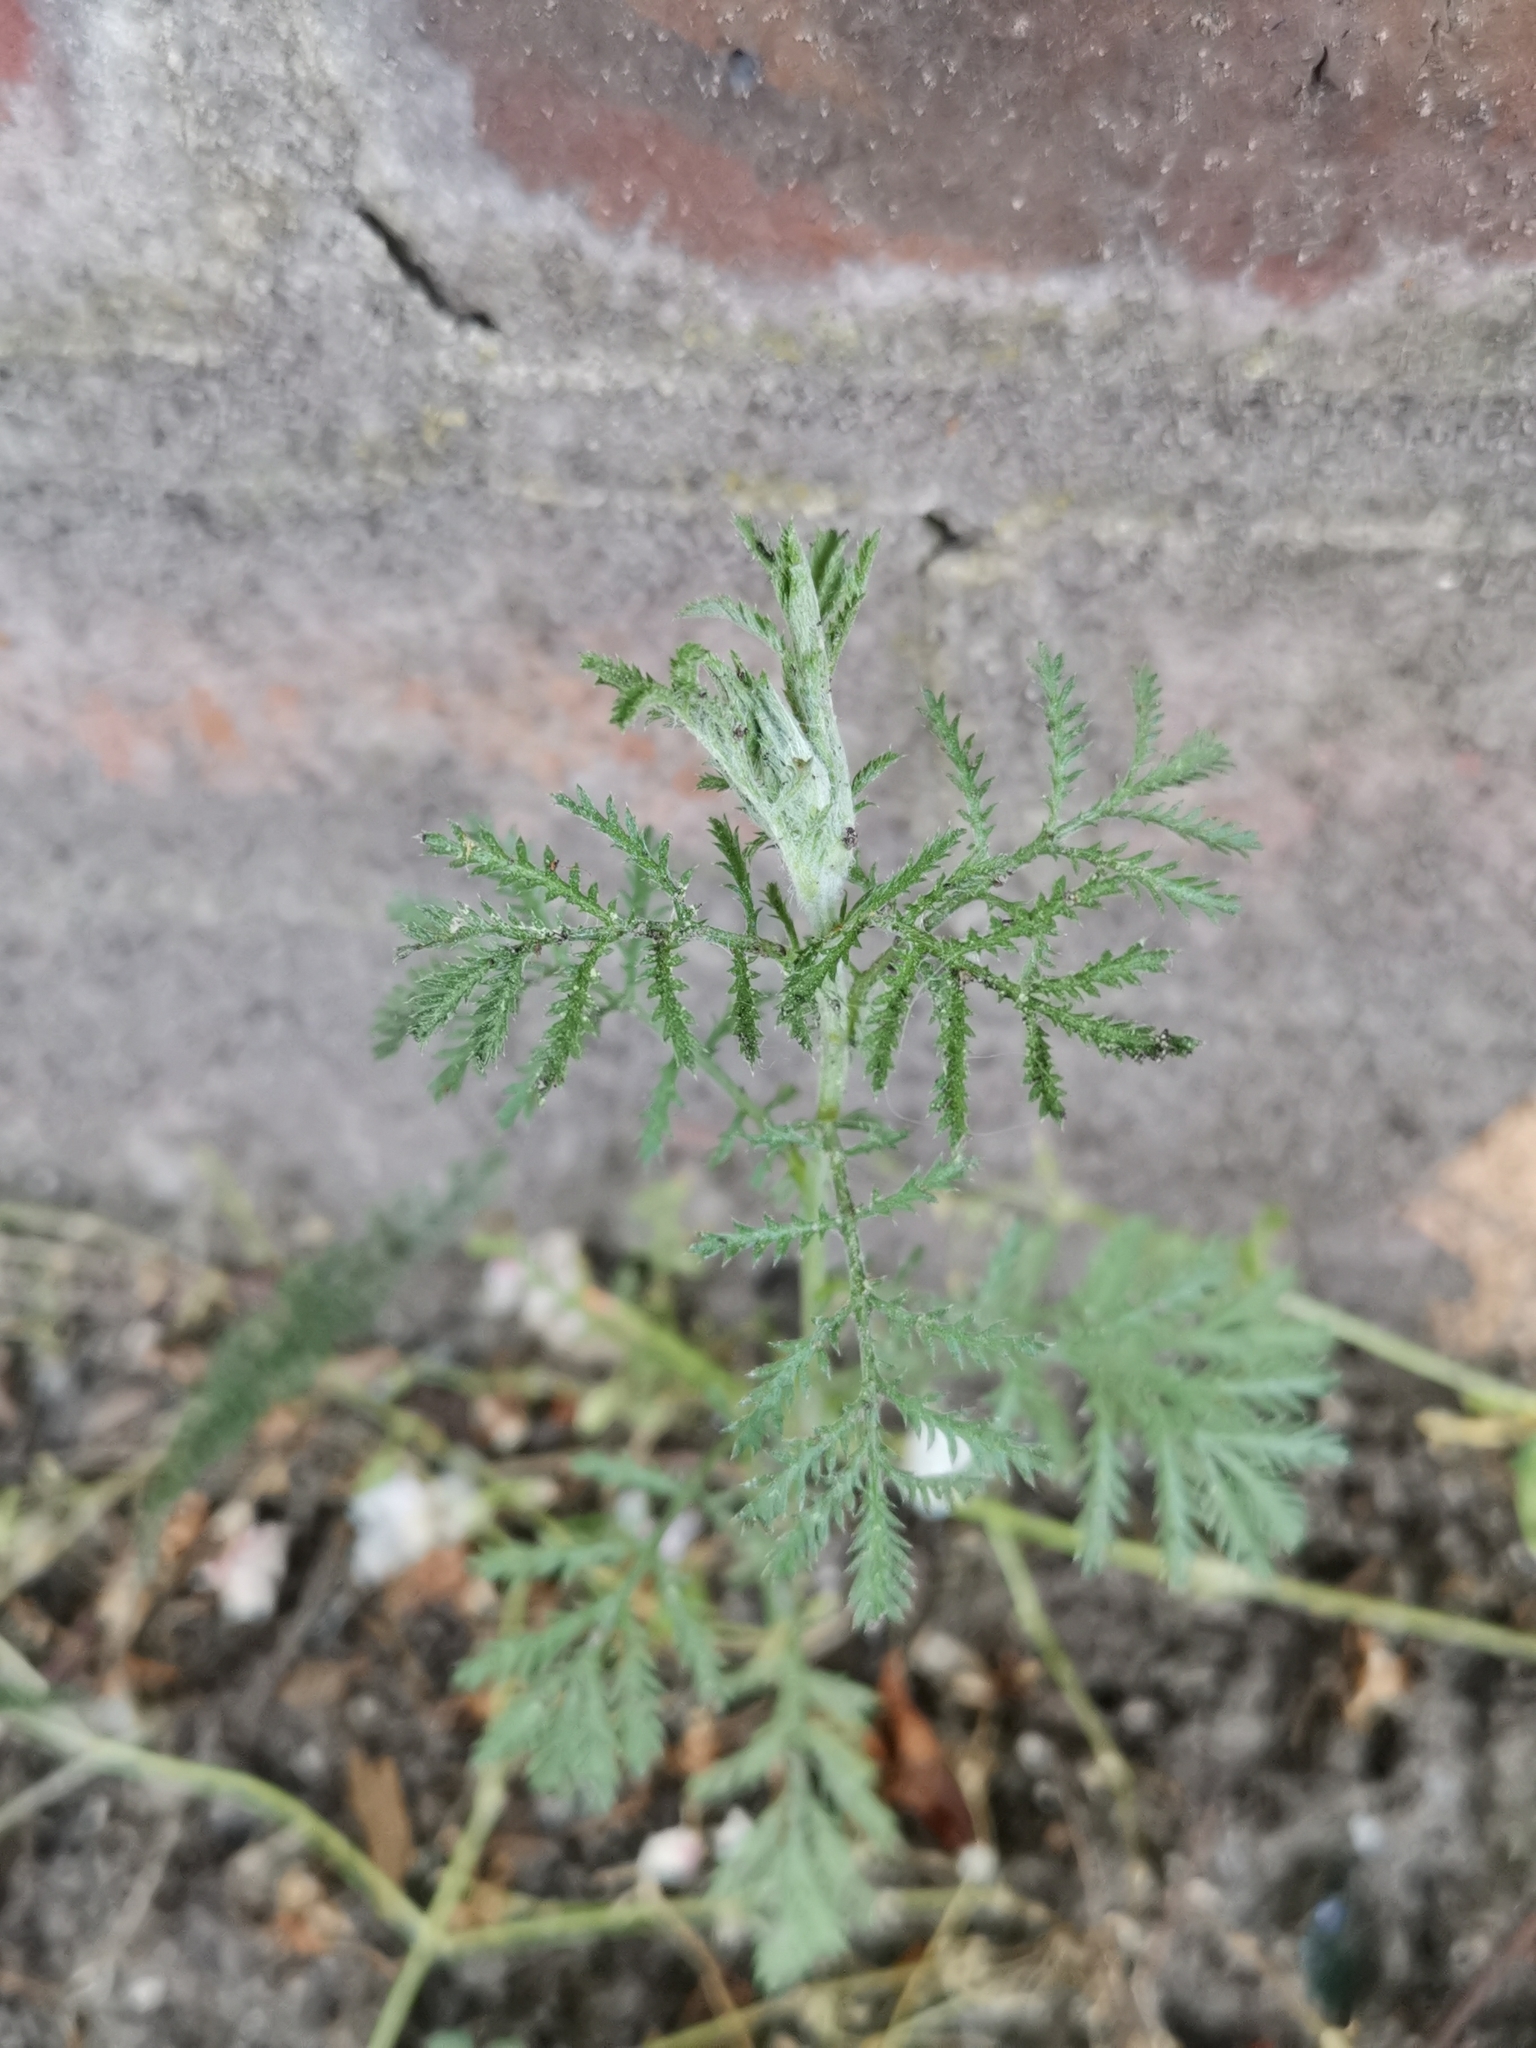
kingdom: Plantae
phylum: Tracheophyta
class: Magnoliopsida
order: Asterales
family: Asteraceae
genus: Cota
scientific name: Cota tinctoria
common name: Golden chamomile
